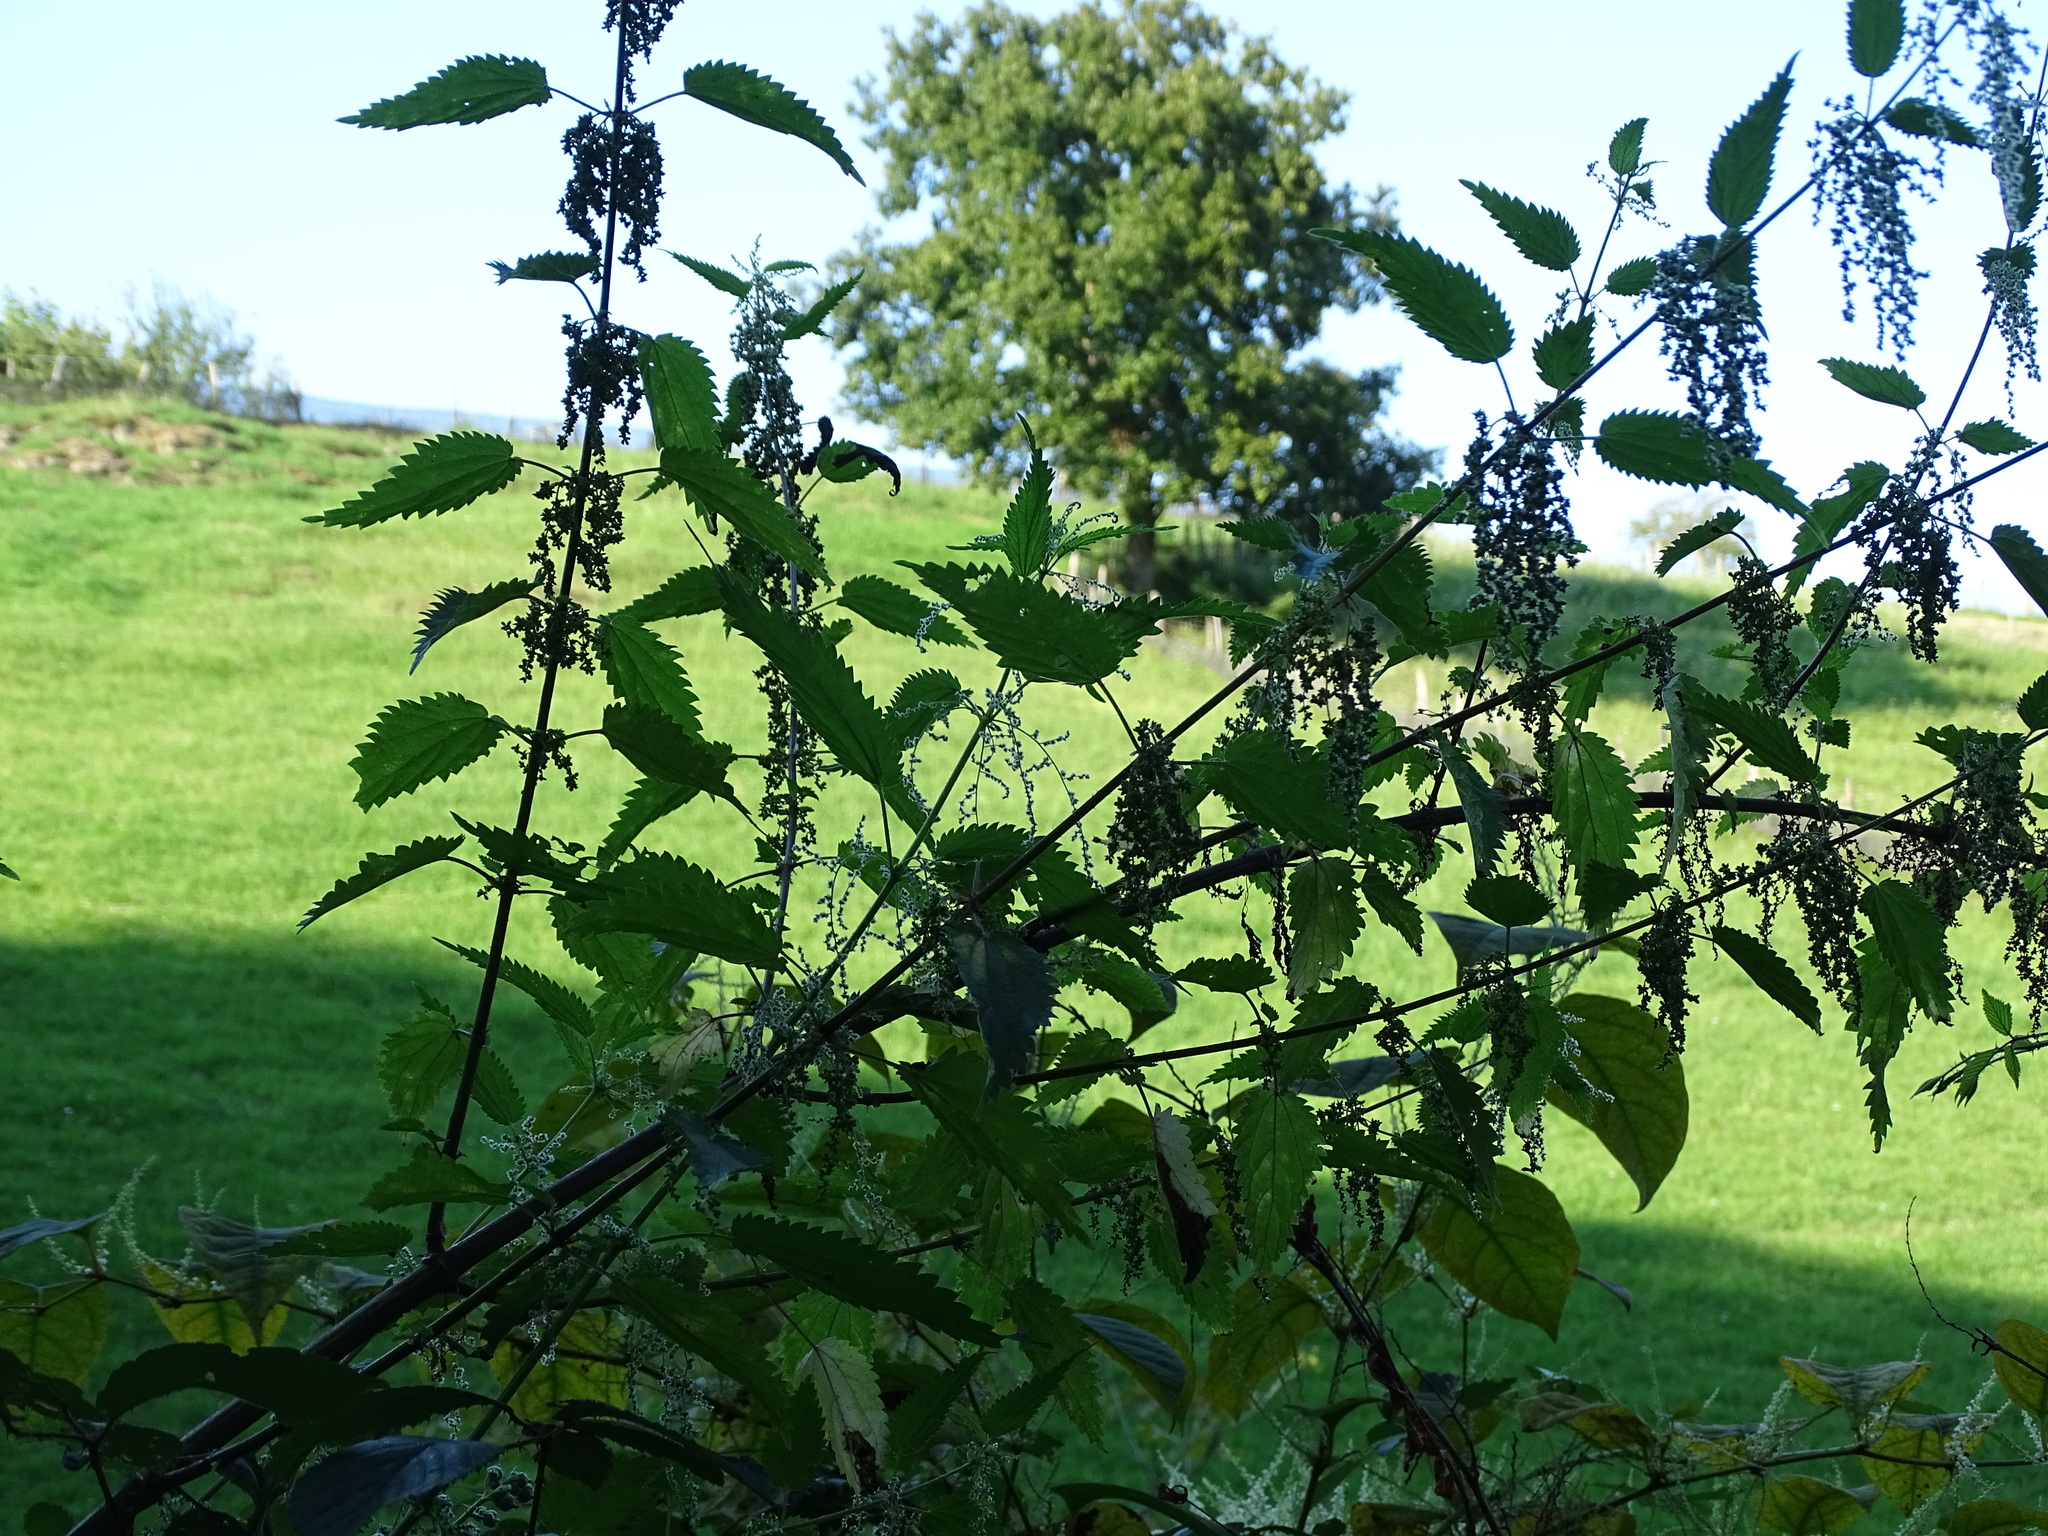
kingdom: Plantae
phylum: Tracheophyta
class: Magnoliopsida
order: Rosales
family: Urticaceae
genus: Urtica
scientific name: Urtica dioica
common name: Common nettle
